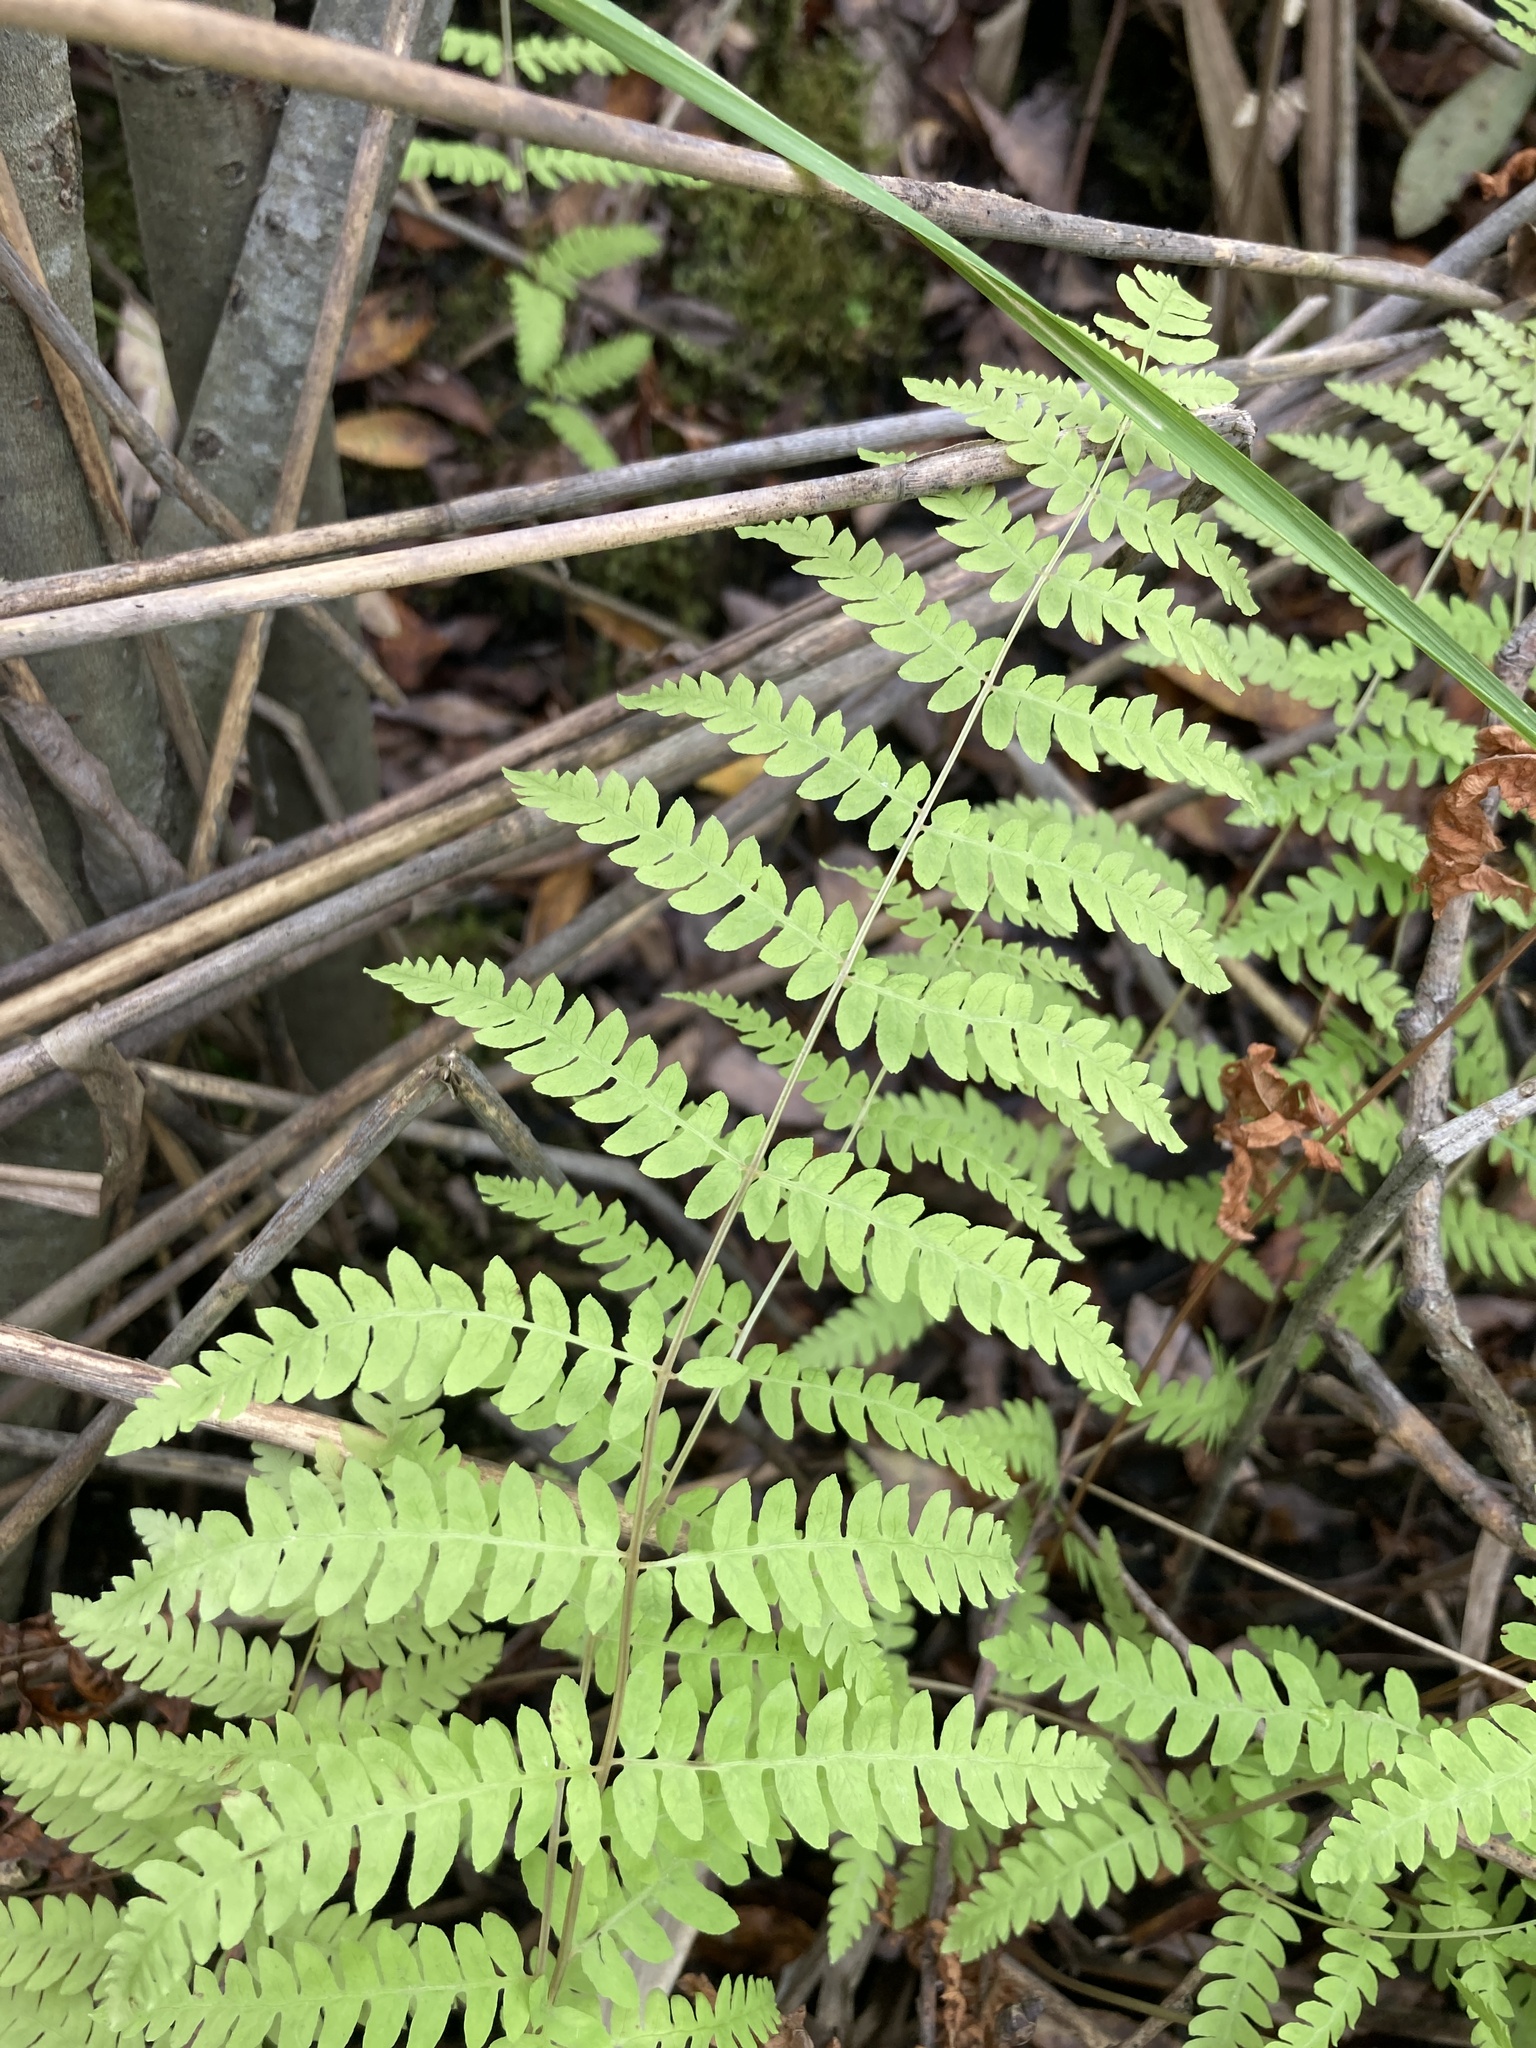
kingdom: Plantae
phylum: Tracheophyta
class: Polypodiopsida
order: Polypodiales
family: Thelypteridaceae
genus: Thelypteris
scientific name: Thelypteris palustris
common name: Marsh fern
